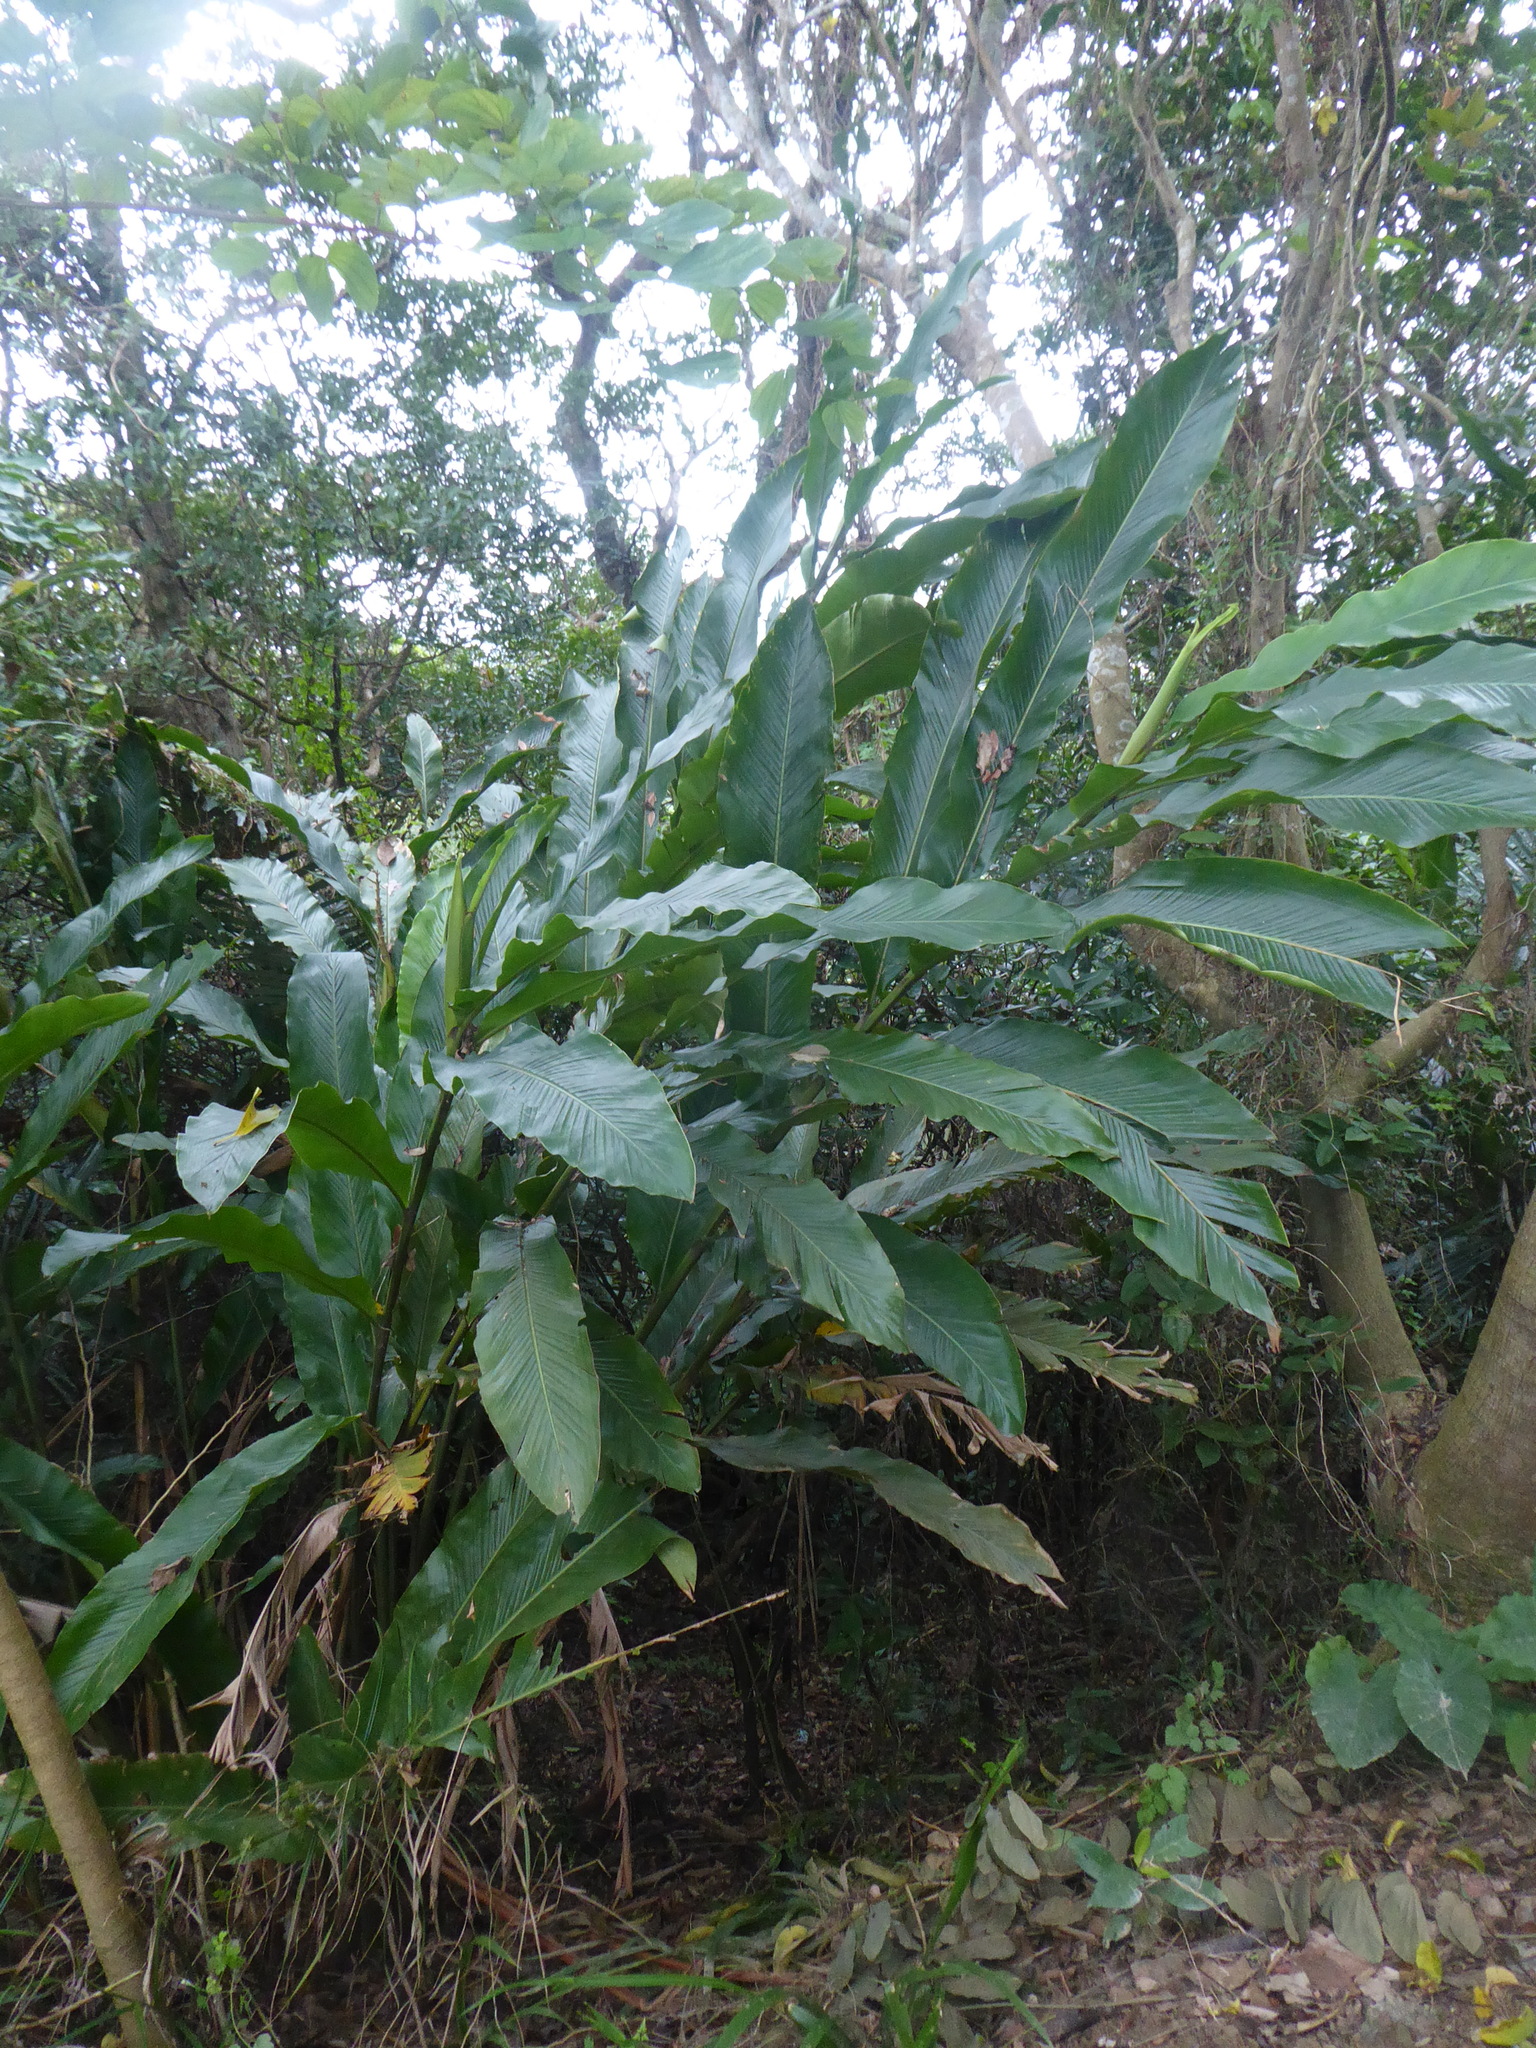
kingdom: Plantae
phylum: Tracheophyta
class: Liliopsida
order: Zingiberales
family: Zingiberaceae
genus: Alpinia
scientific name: Alpinia uraiensis
